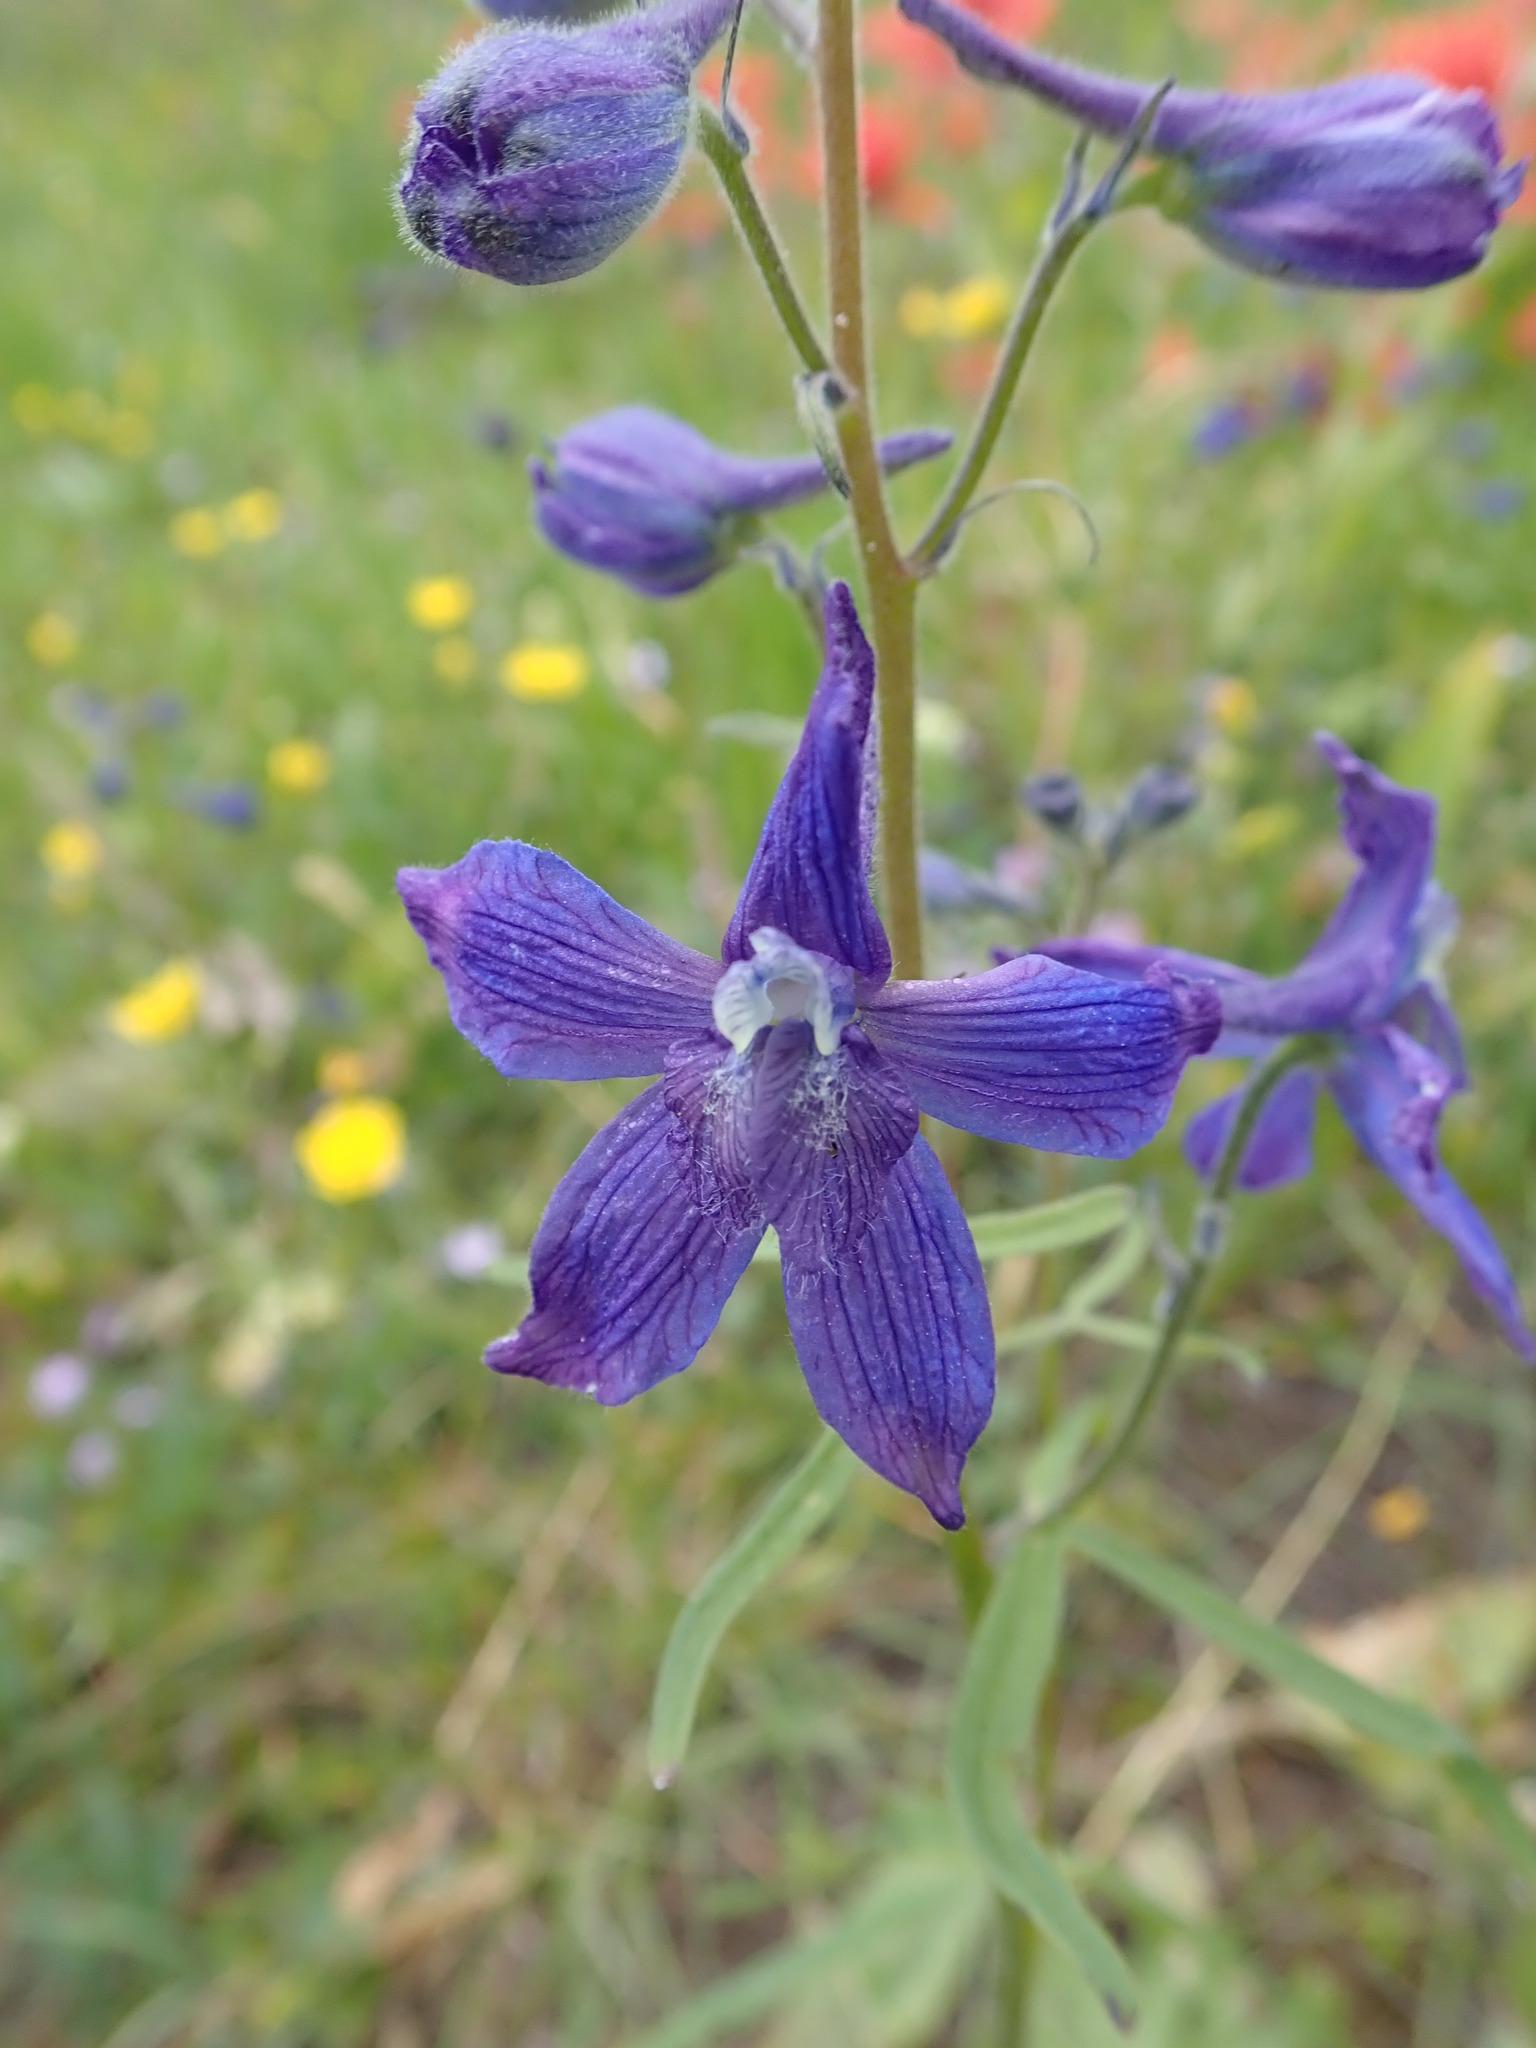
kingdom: Plantae
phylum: Tracheophyta
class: Magnoliopsida
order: Ranunculales
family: Ranunculaceae
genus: Delphinium
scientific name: Delphinium nuttallianum
